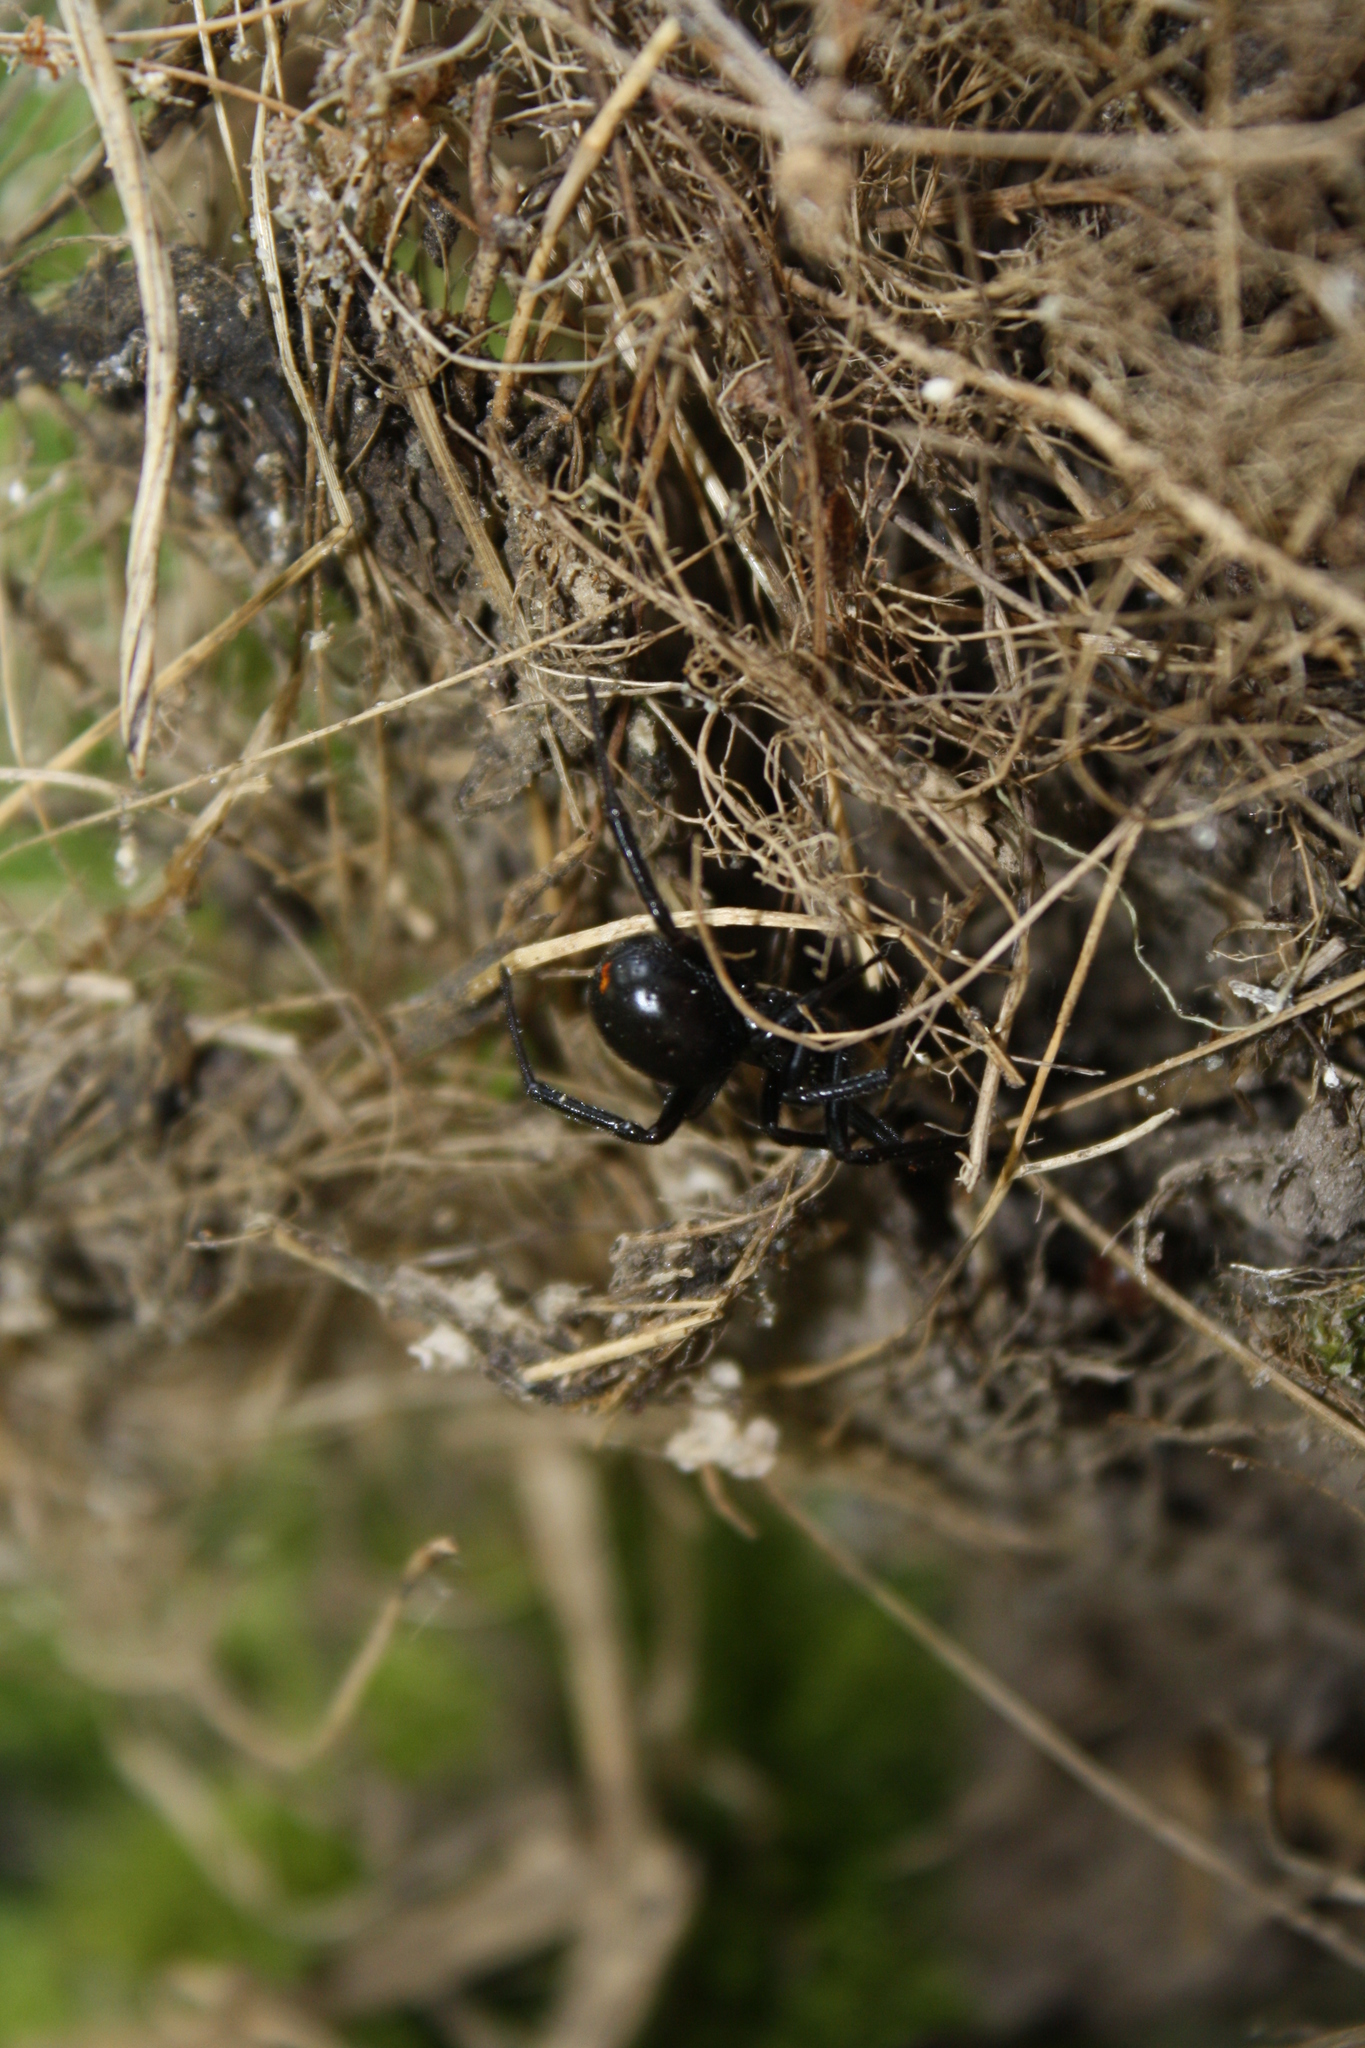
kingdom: Animalia
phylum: Arthropoda
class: Arachnida
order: Araneae
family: Theridiidae
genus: Steatoda
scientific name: Steatoda capensis
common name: Cobweb weaver
